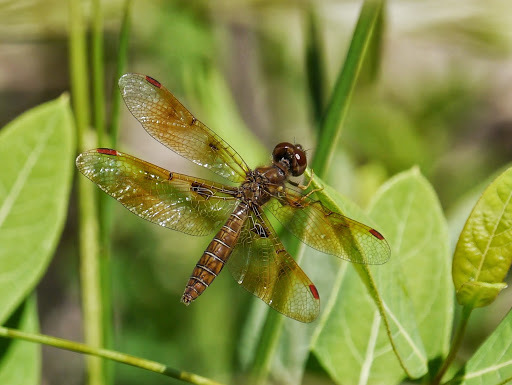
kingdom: Animalia
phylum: Arthropoda
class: Insecta
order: Odonata
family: Libellulidae
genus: Perithemis
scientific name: Perithemis tenera
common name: Eastern amberwing
